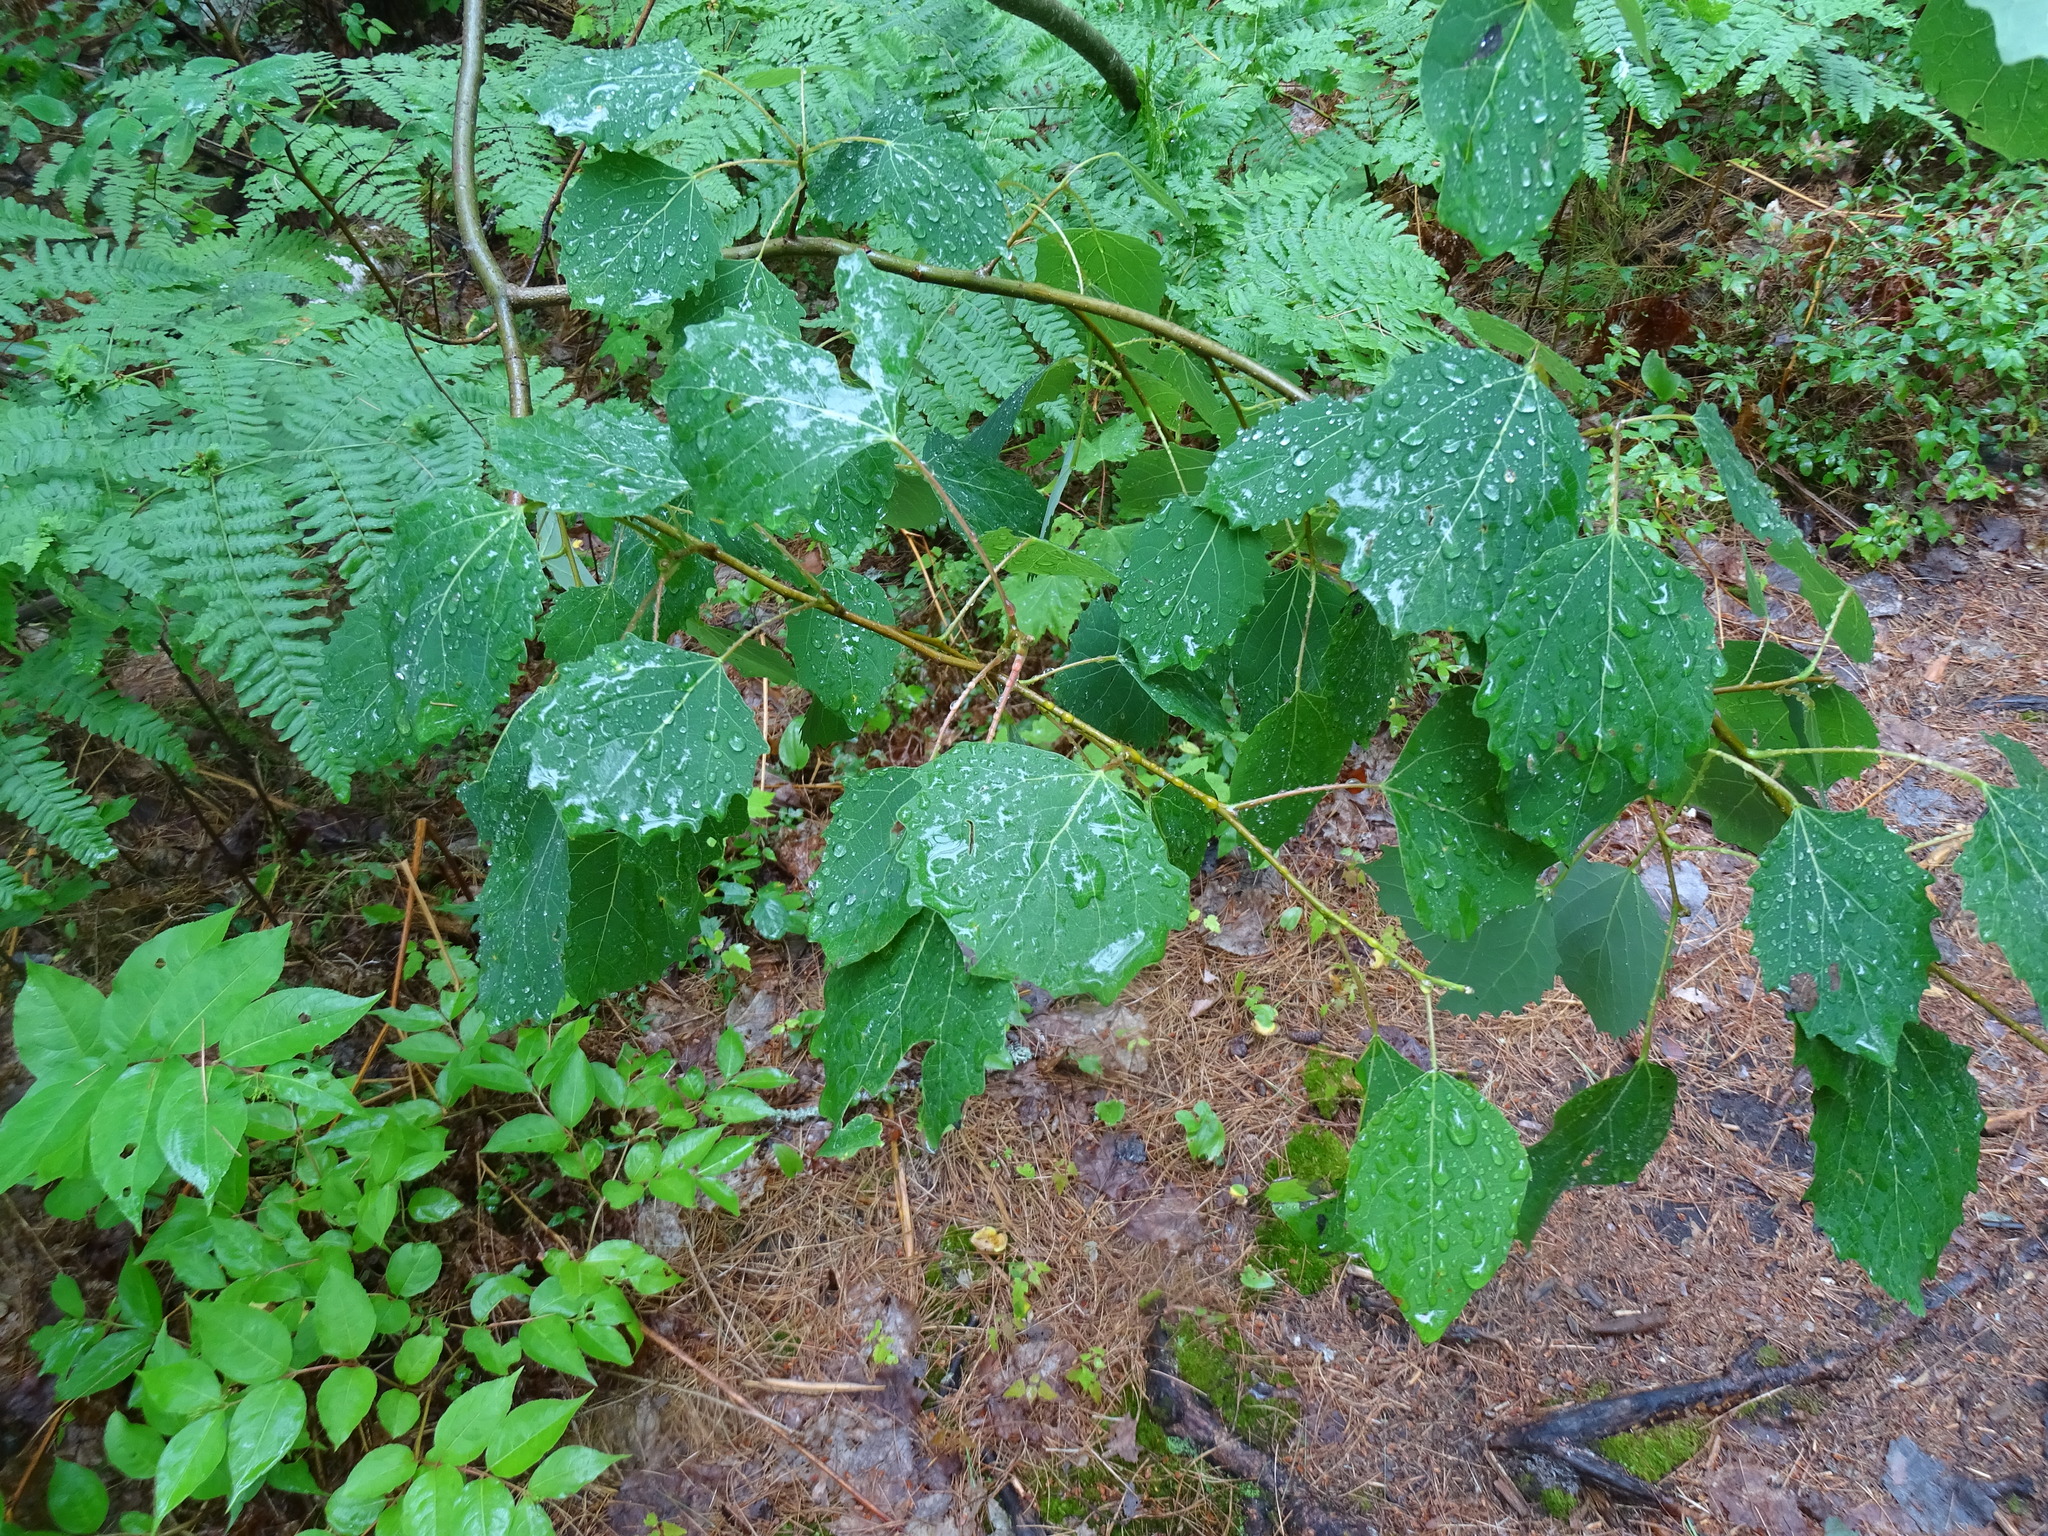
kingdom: Plantae
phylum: Tracheophyta
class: Magnoliopsida
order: Malpighiales
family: Salicaceae
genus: Populus
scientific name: Populus grandidentata
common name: Bigtooth aspen
